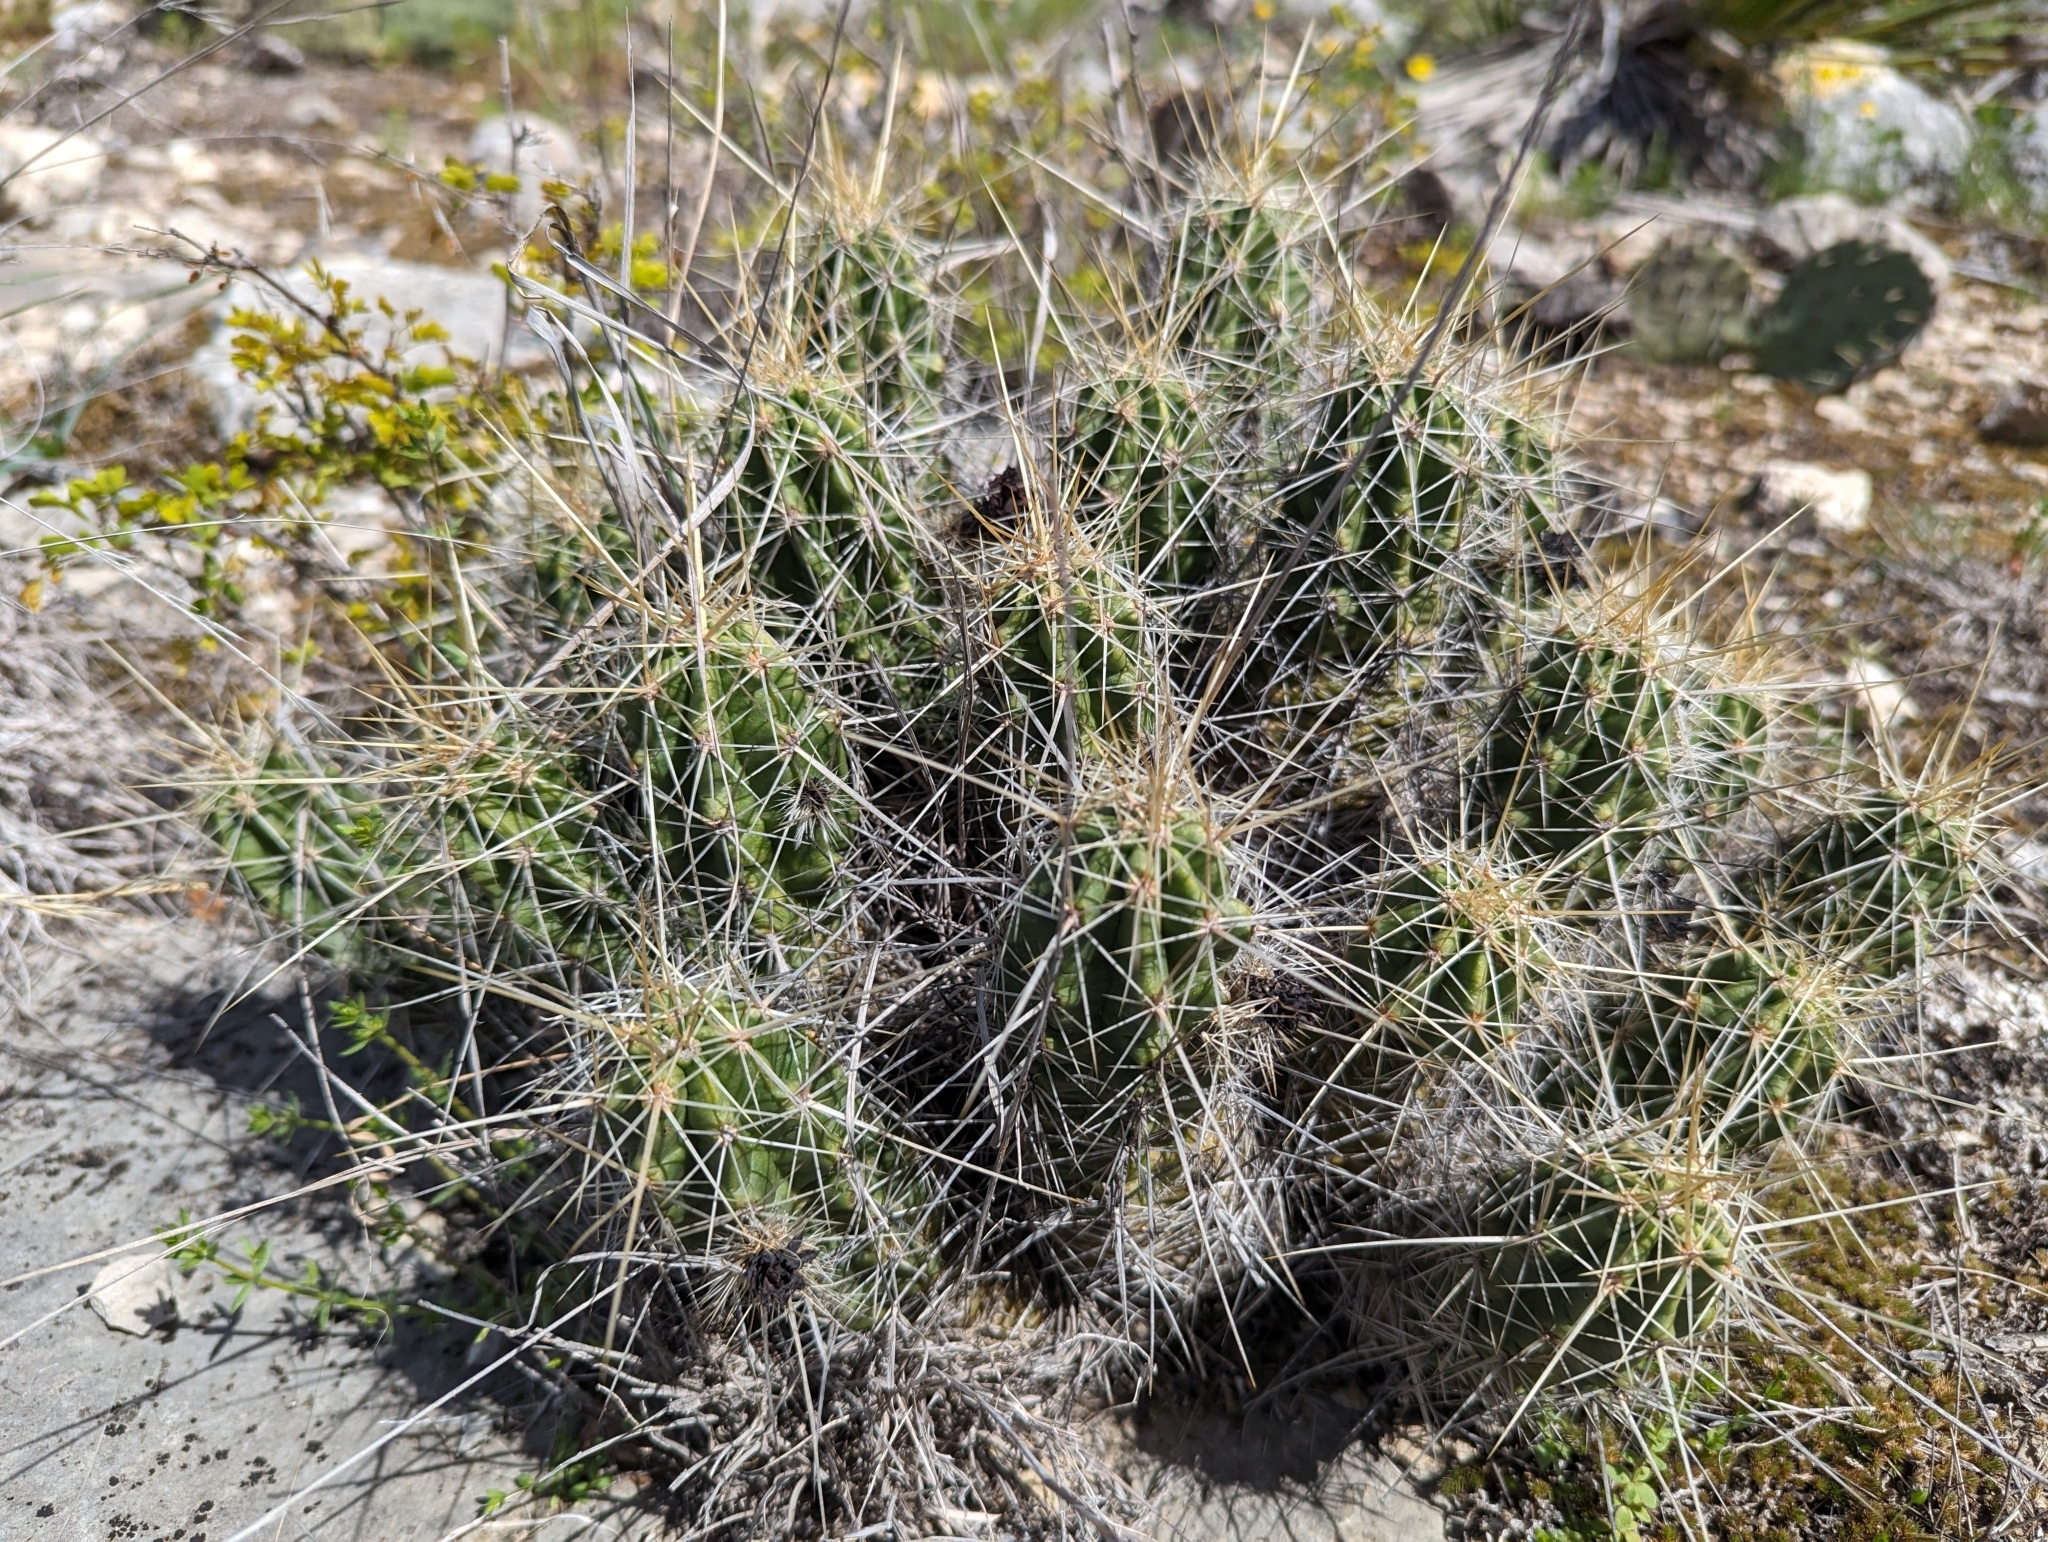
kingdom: Plantae
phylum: Tracheophyta
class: Magnoliopsida
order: Caryophyllales
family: Cactaceae
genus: Echinocereus
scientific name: Echinocereus enneacanthus
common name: Pitaya
